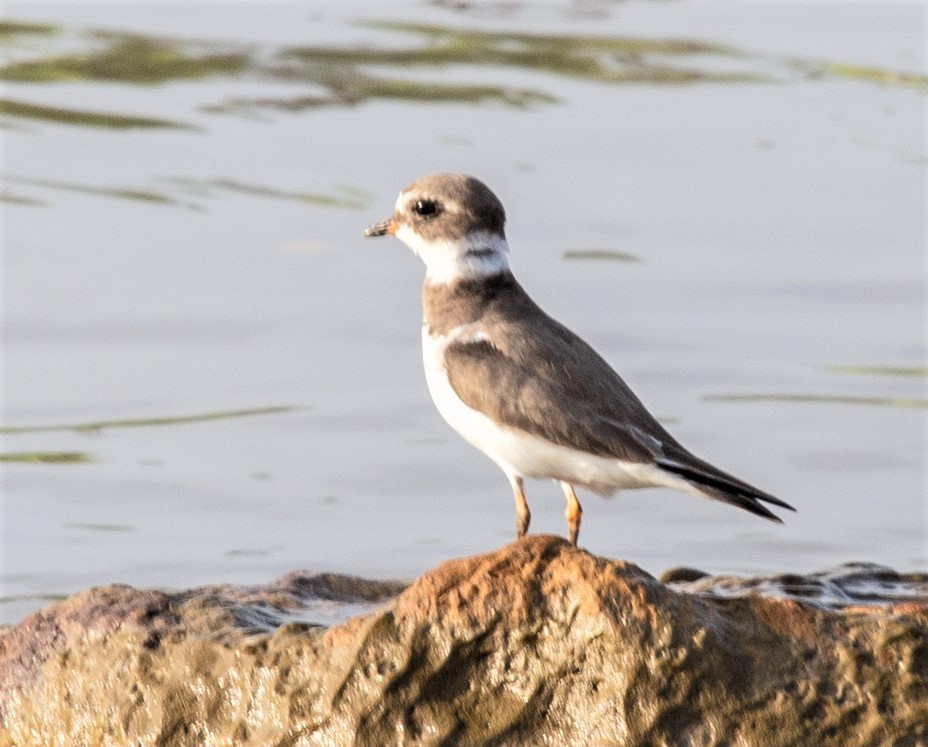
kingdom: Animalia
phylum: Chordata
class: Aves
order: Charadriiformes
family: Charadriidae
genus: Charadrius
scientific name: Charadrius semipalmatus
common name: Semipalmated plover
